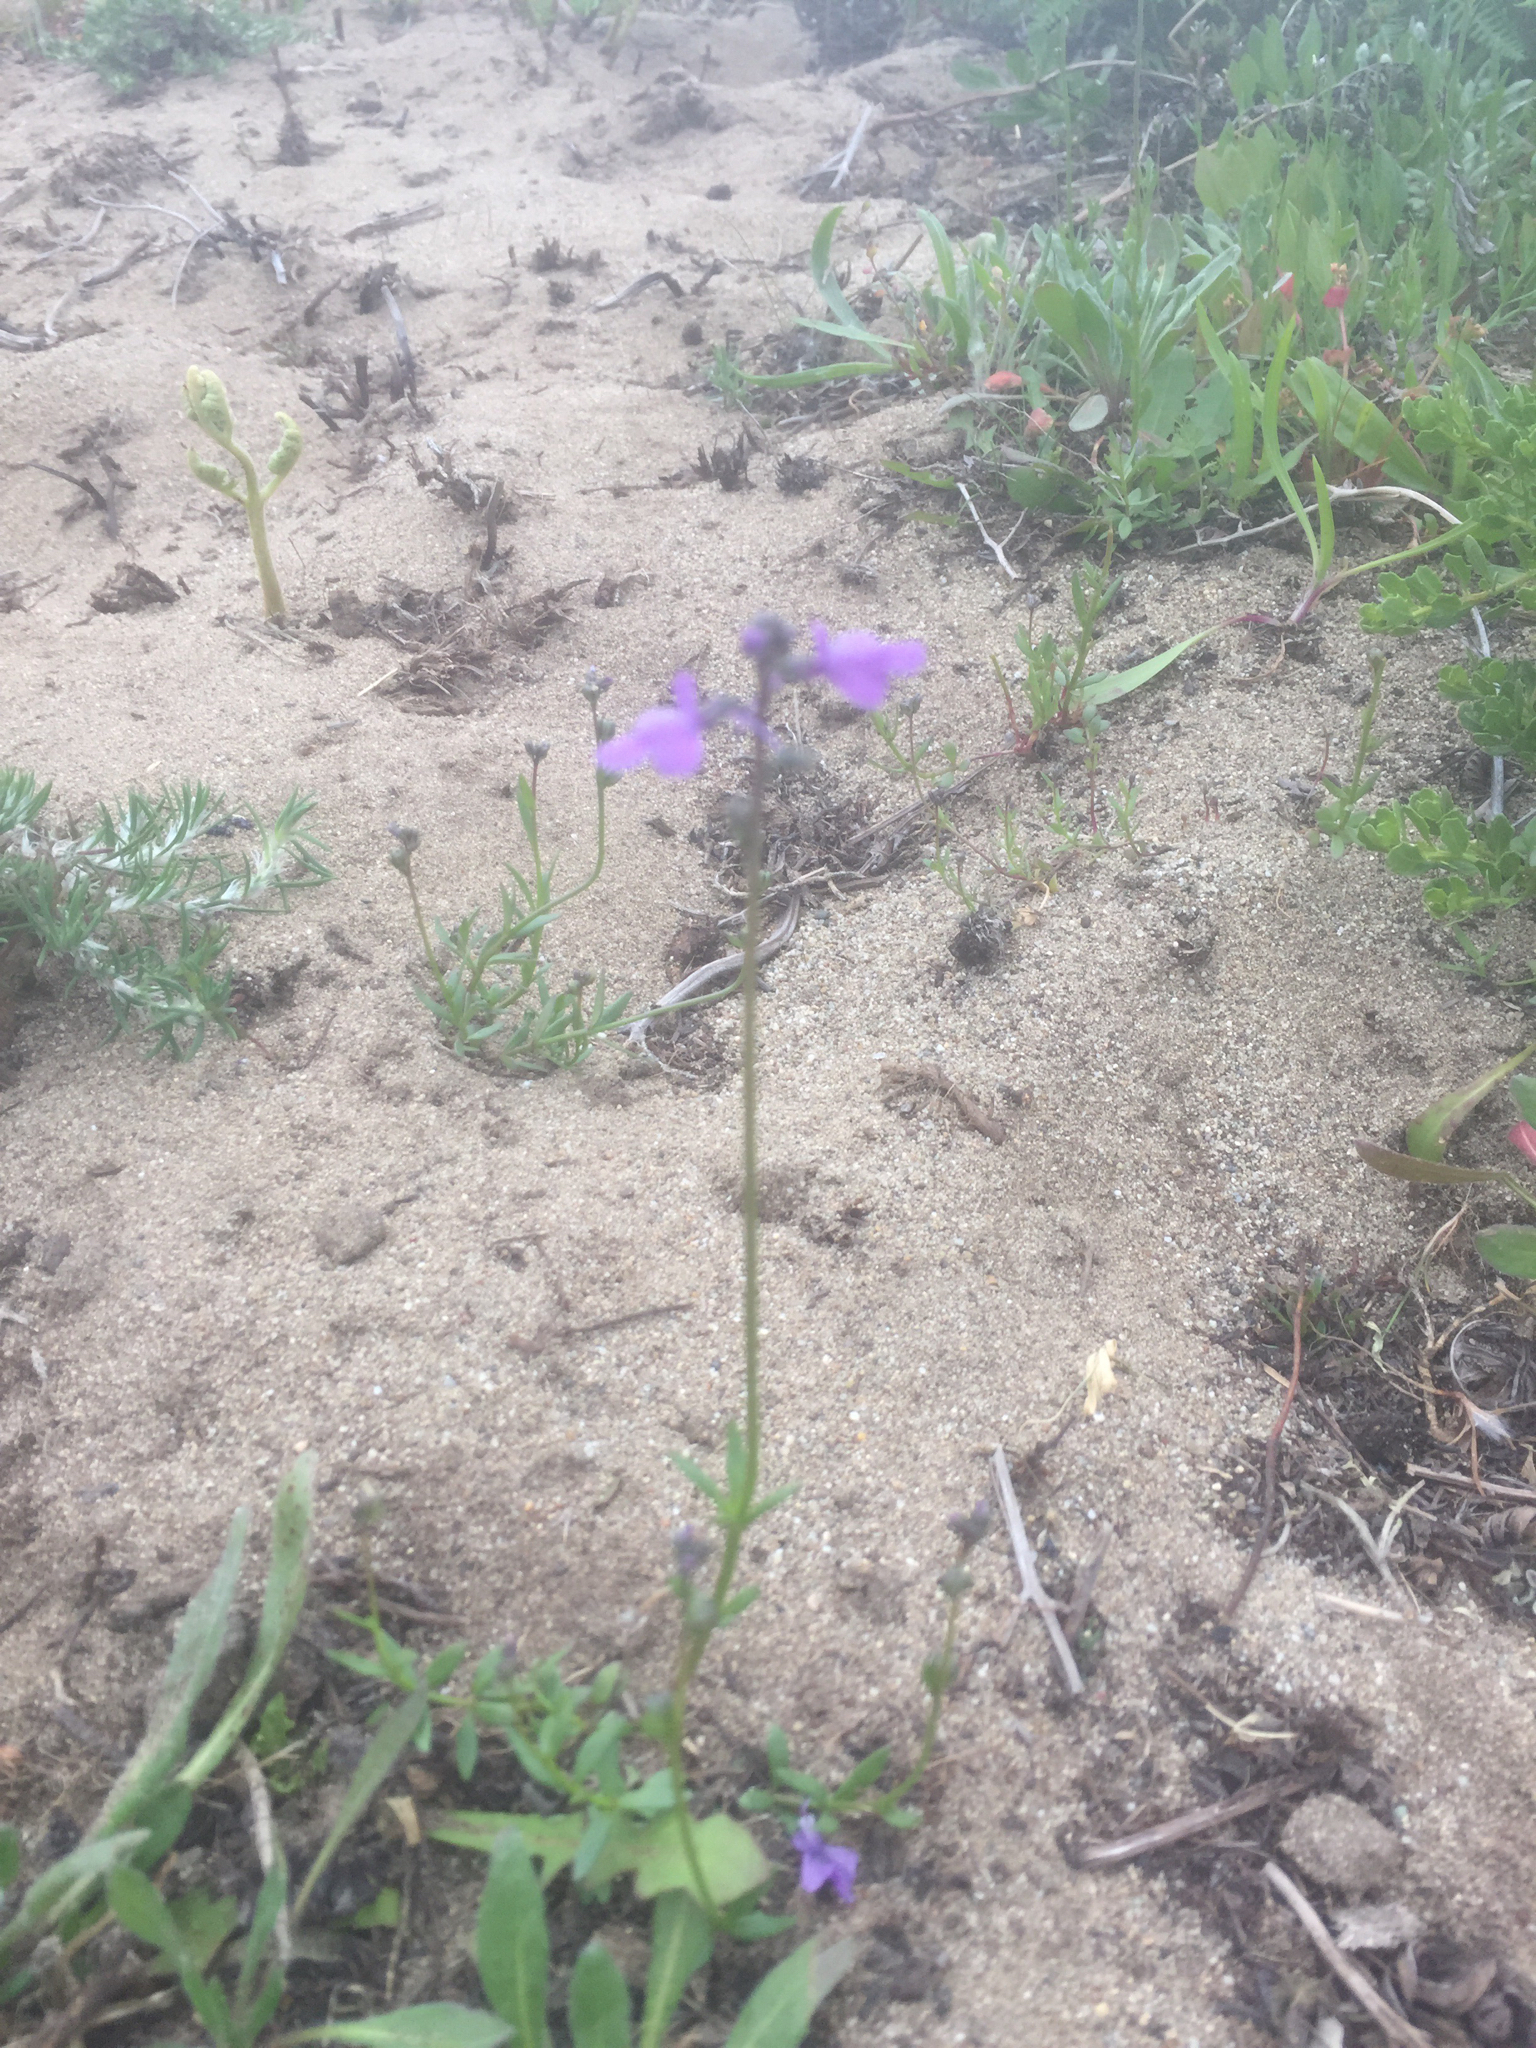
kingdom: Plantae
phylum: Tracheophyta
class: Magnoliopsida
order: Lamiales
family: Plantaginaceae
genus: Nuttallanthus
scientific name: Nuttallanthus texanus
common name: Texas toadflax
